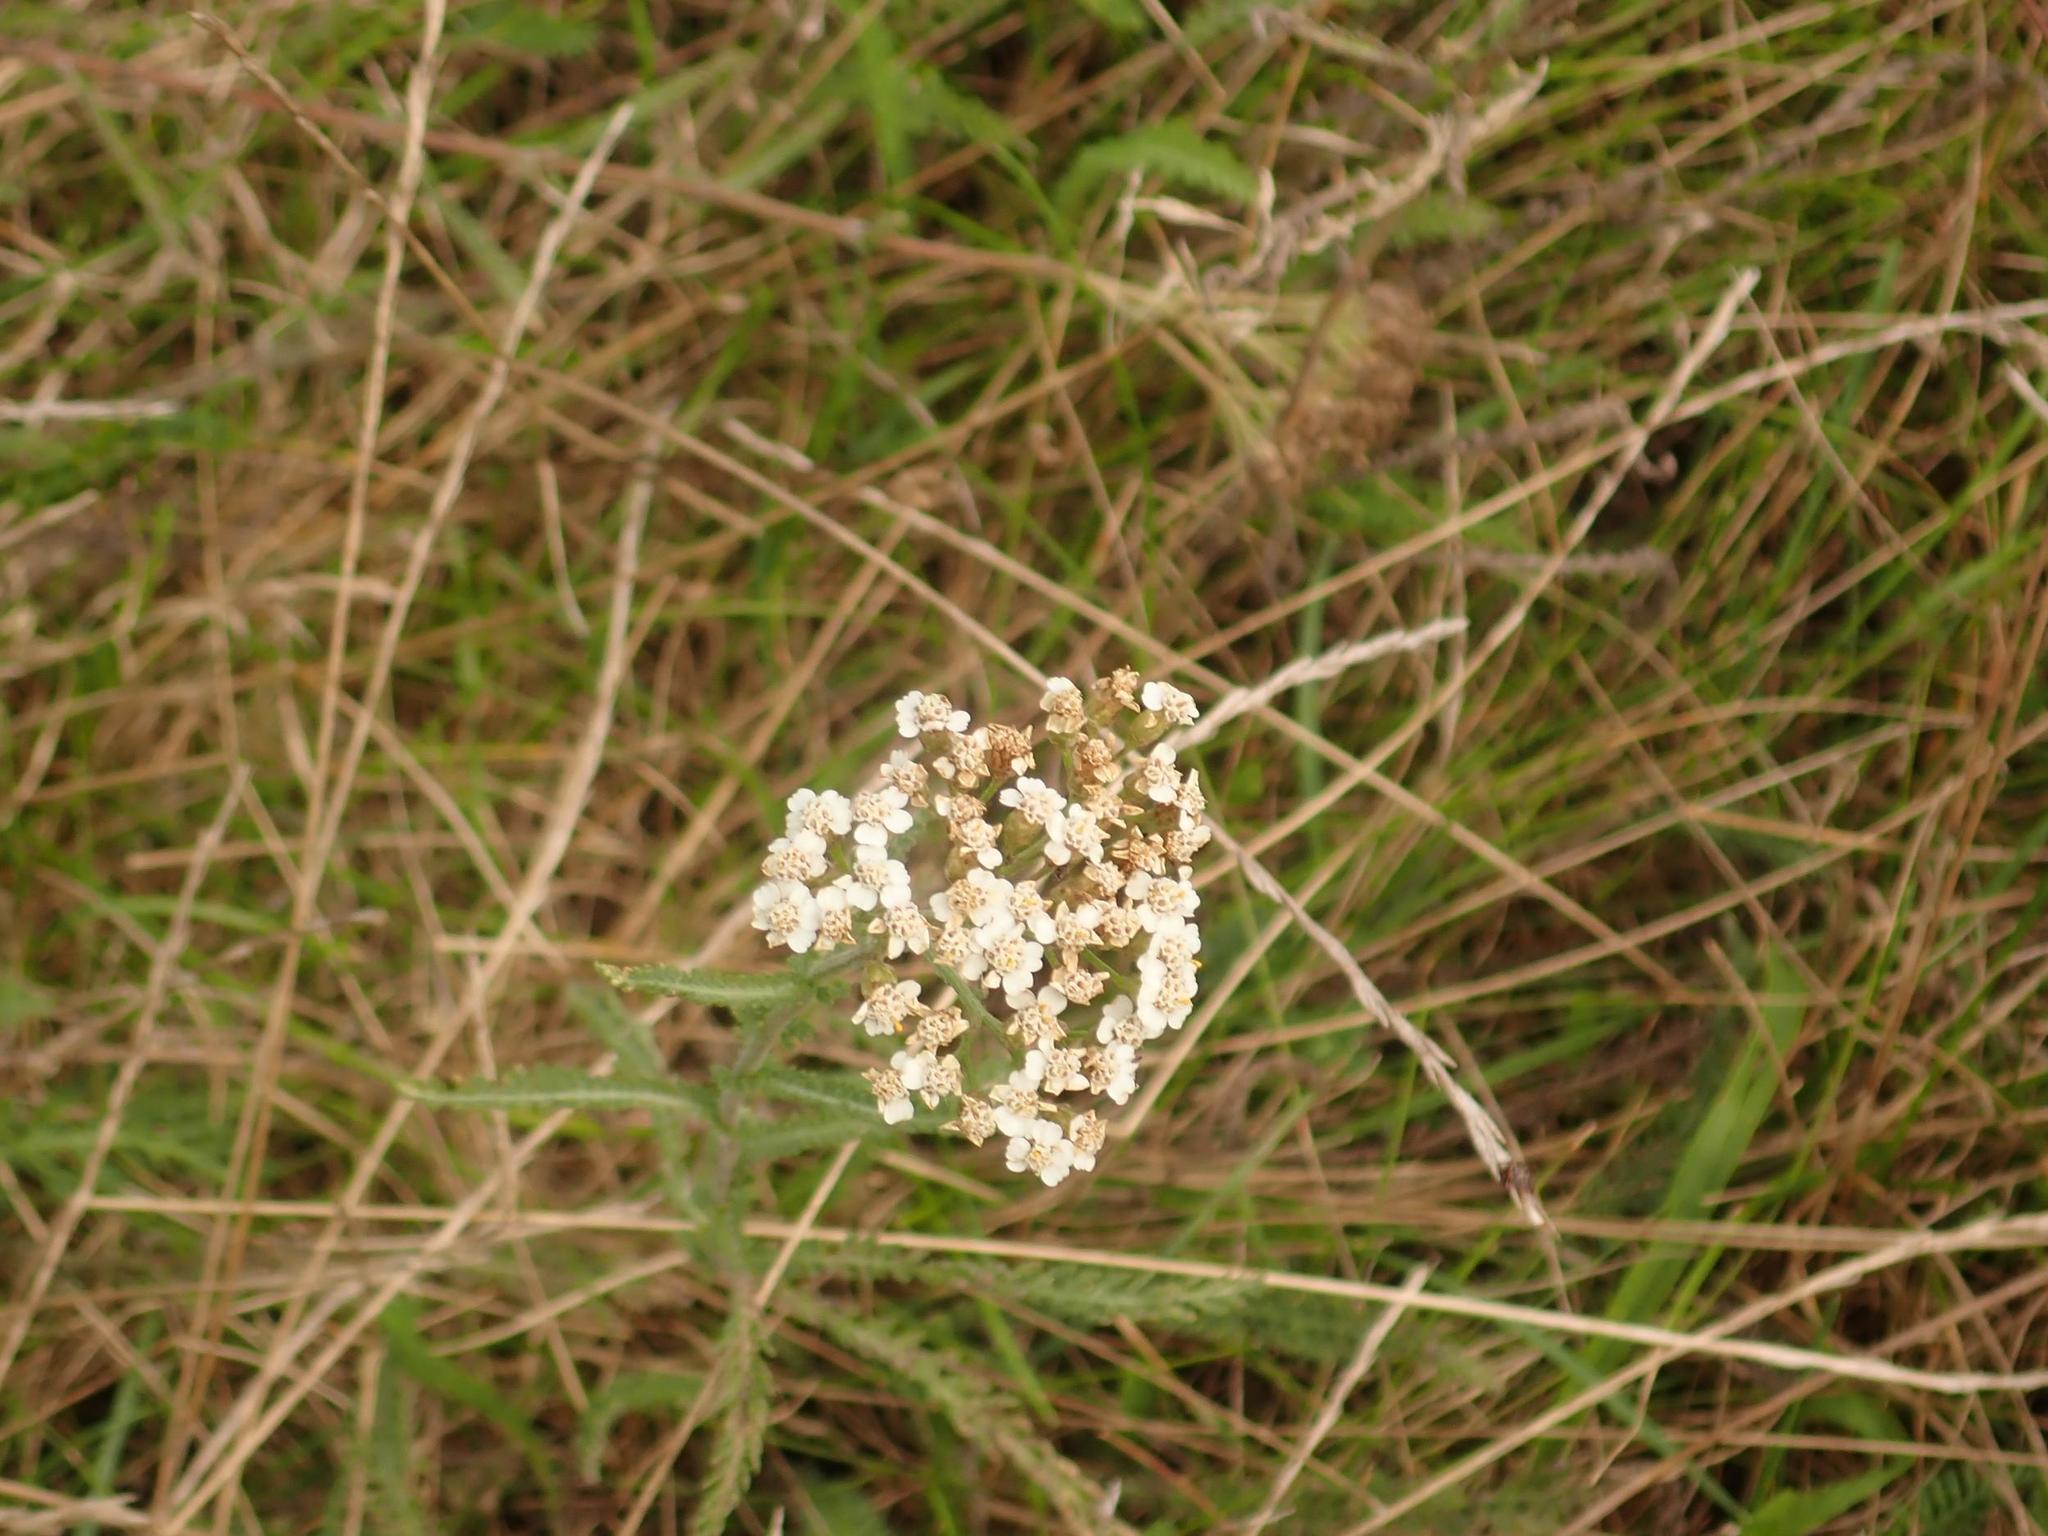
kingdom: Plantae
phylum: Tracheophyta
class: Magnoliopsida
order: Asterales
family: Asteraceae
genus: Achillea
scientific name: Achillea millefolium
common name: Yarrow
